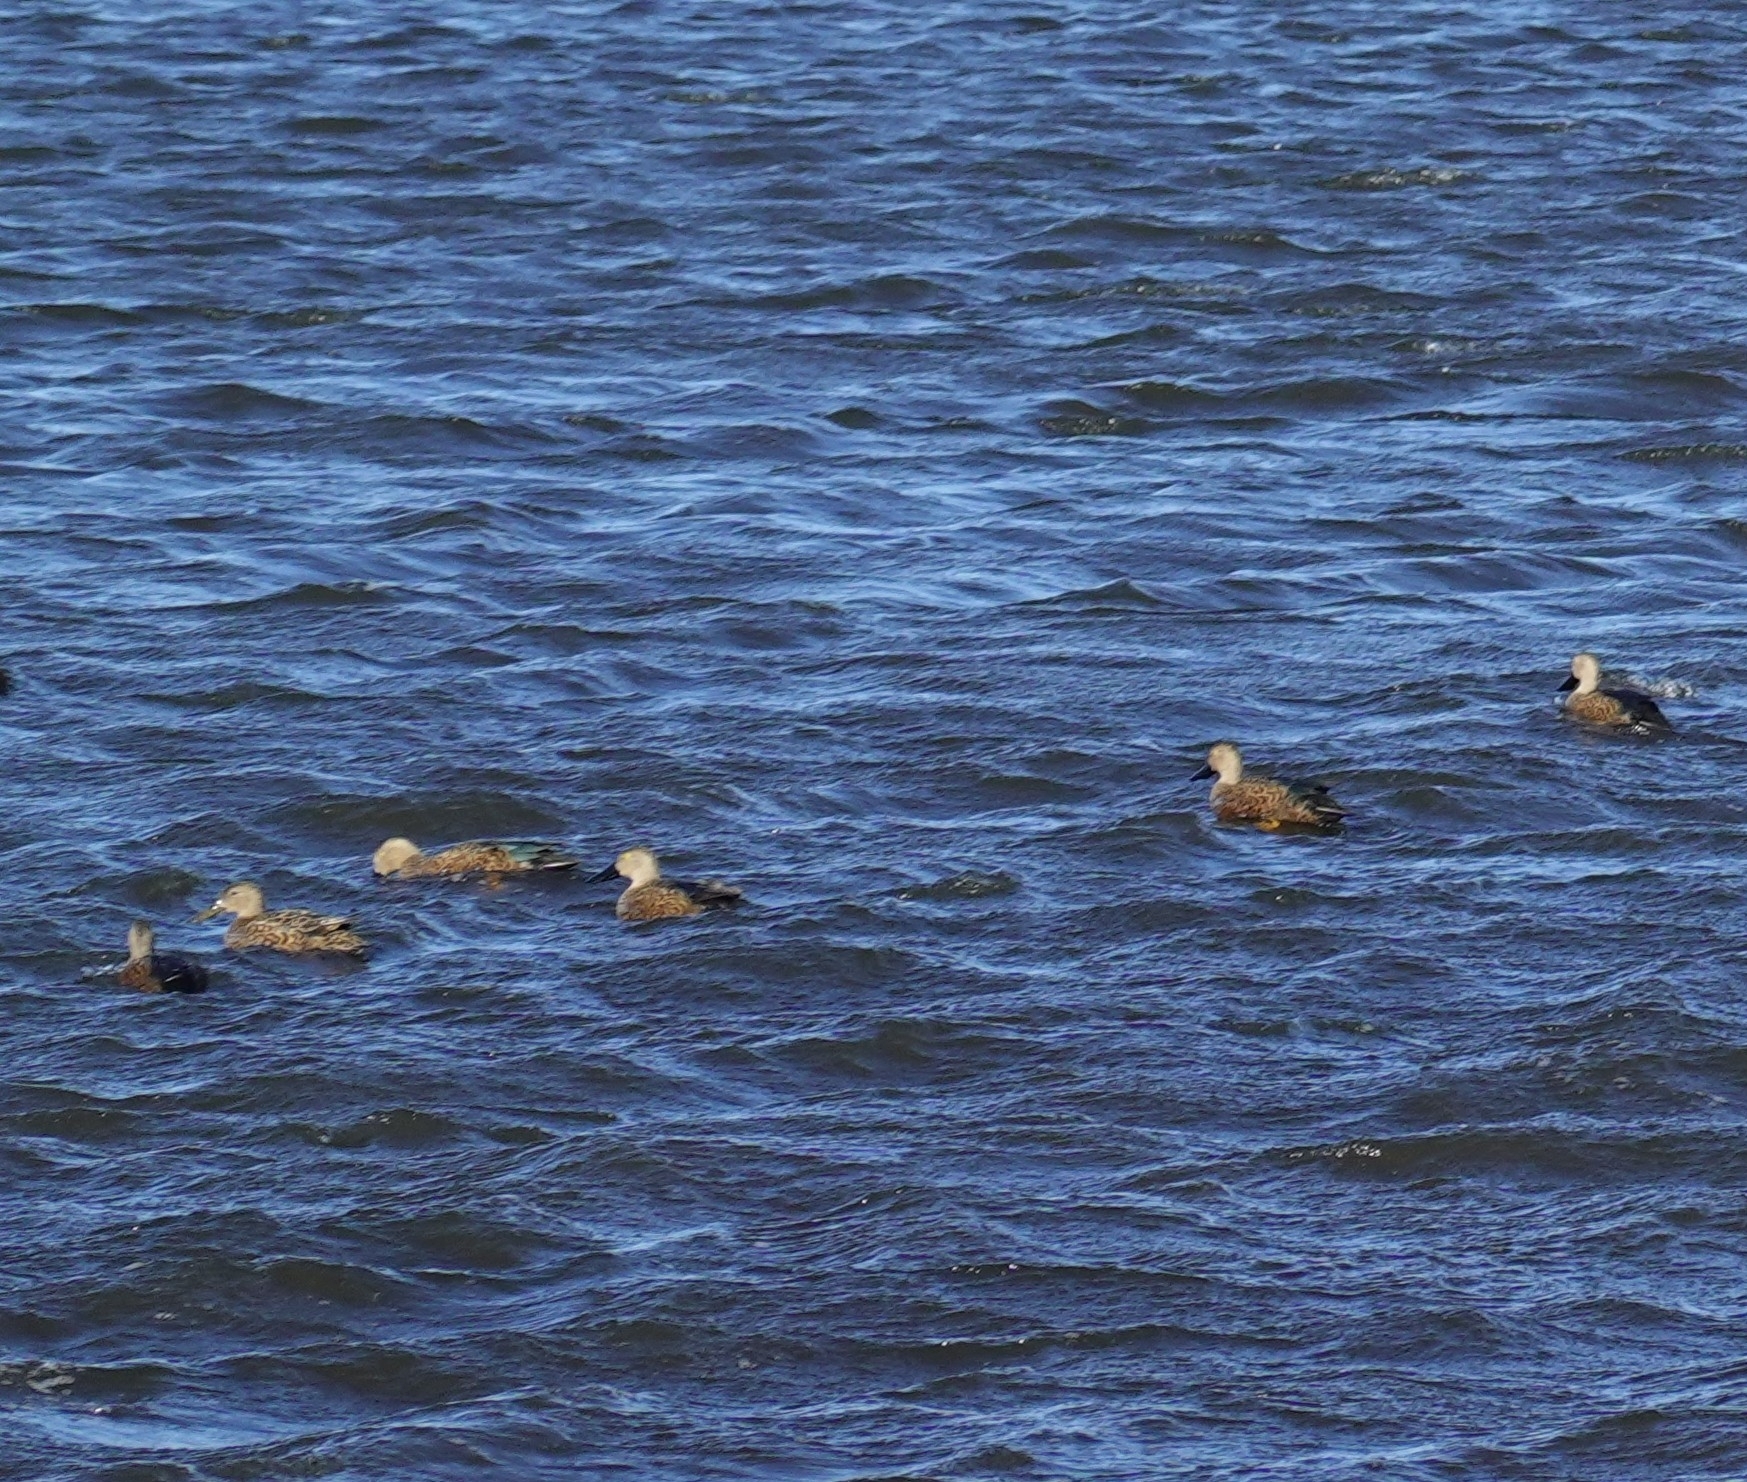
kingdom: Animalia
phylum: Chordata
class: Aves
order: Anseriformes
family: Anatidae
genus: Spatula
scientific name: Spatula smithii
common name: Cape shoveler
